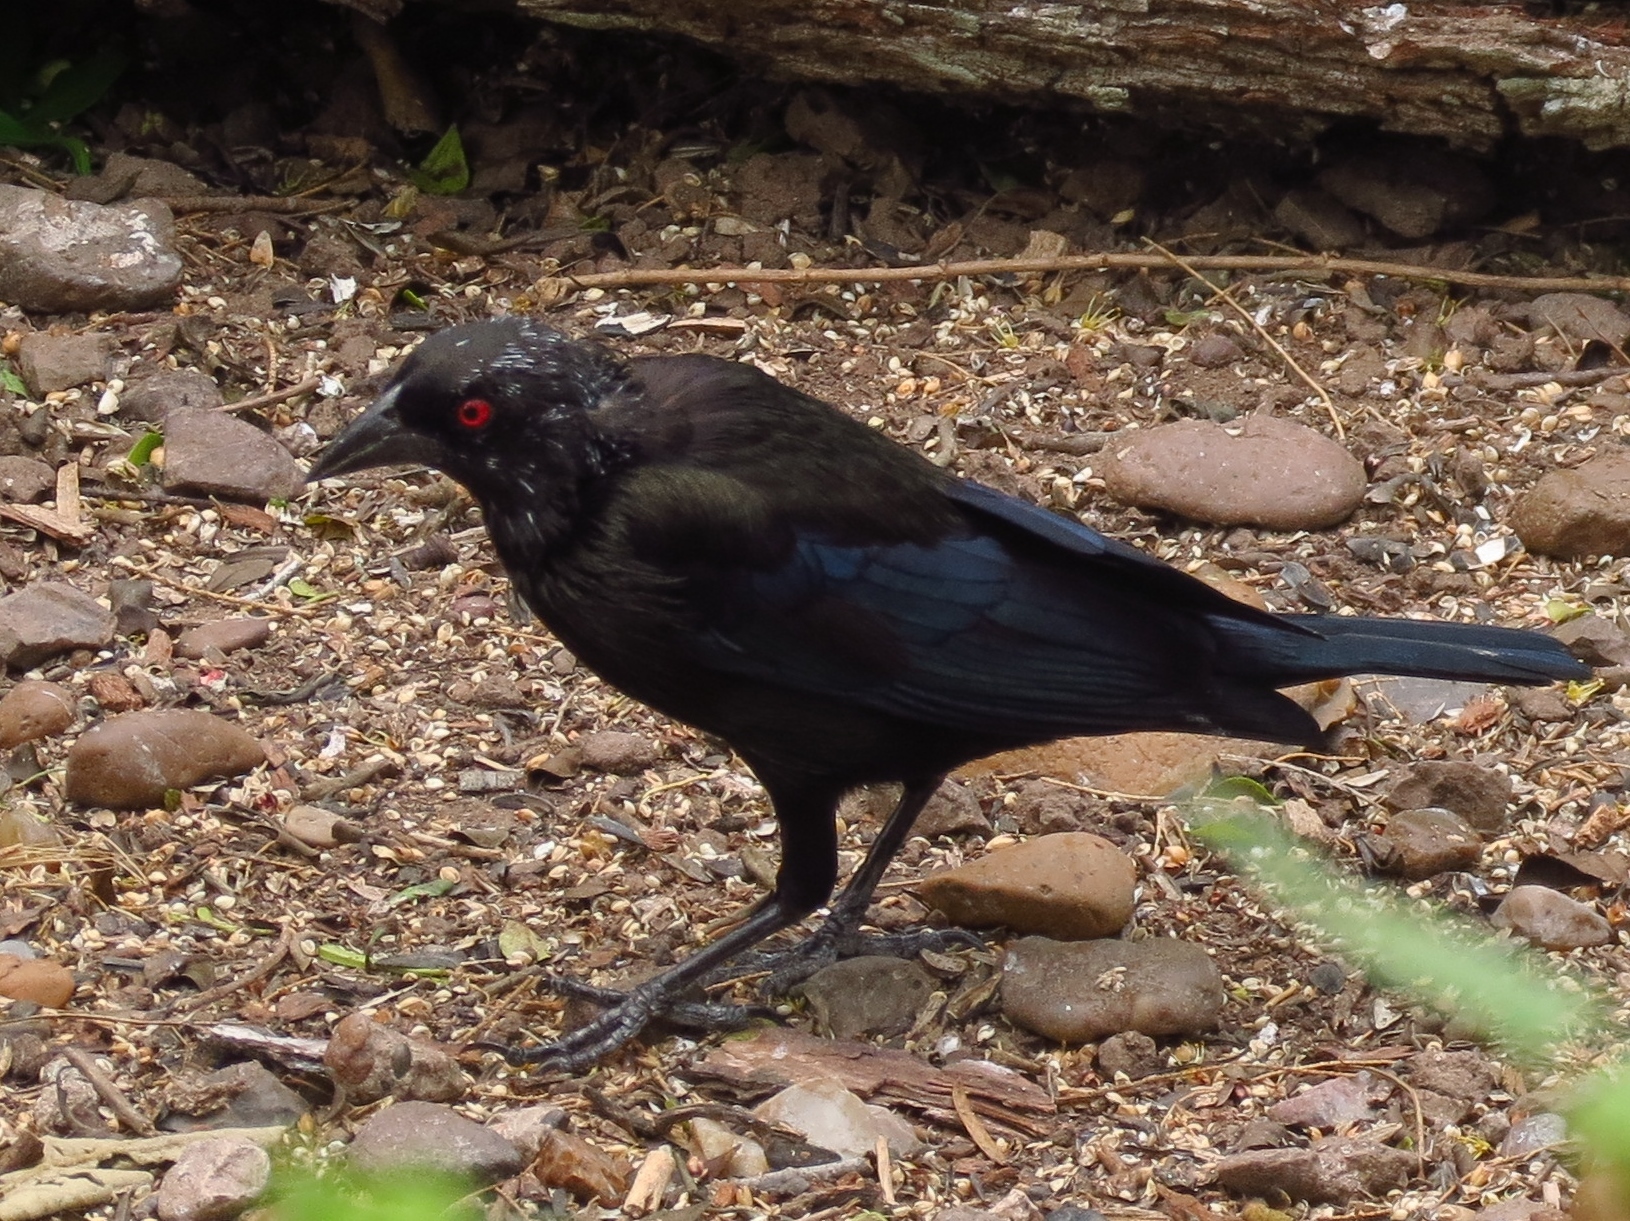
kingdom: Animalia
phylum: Chordata
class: Aves
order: Passeriformes
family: Icteridae
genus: Molothrus
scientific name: Molothrus aeneus
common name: Bronzed cowbird
